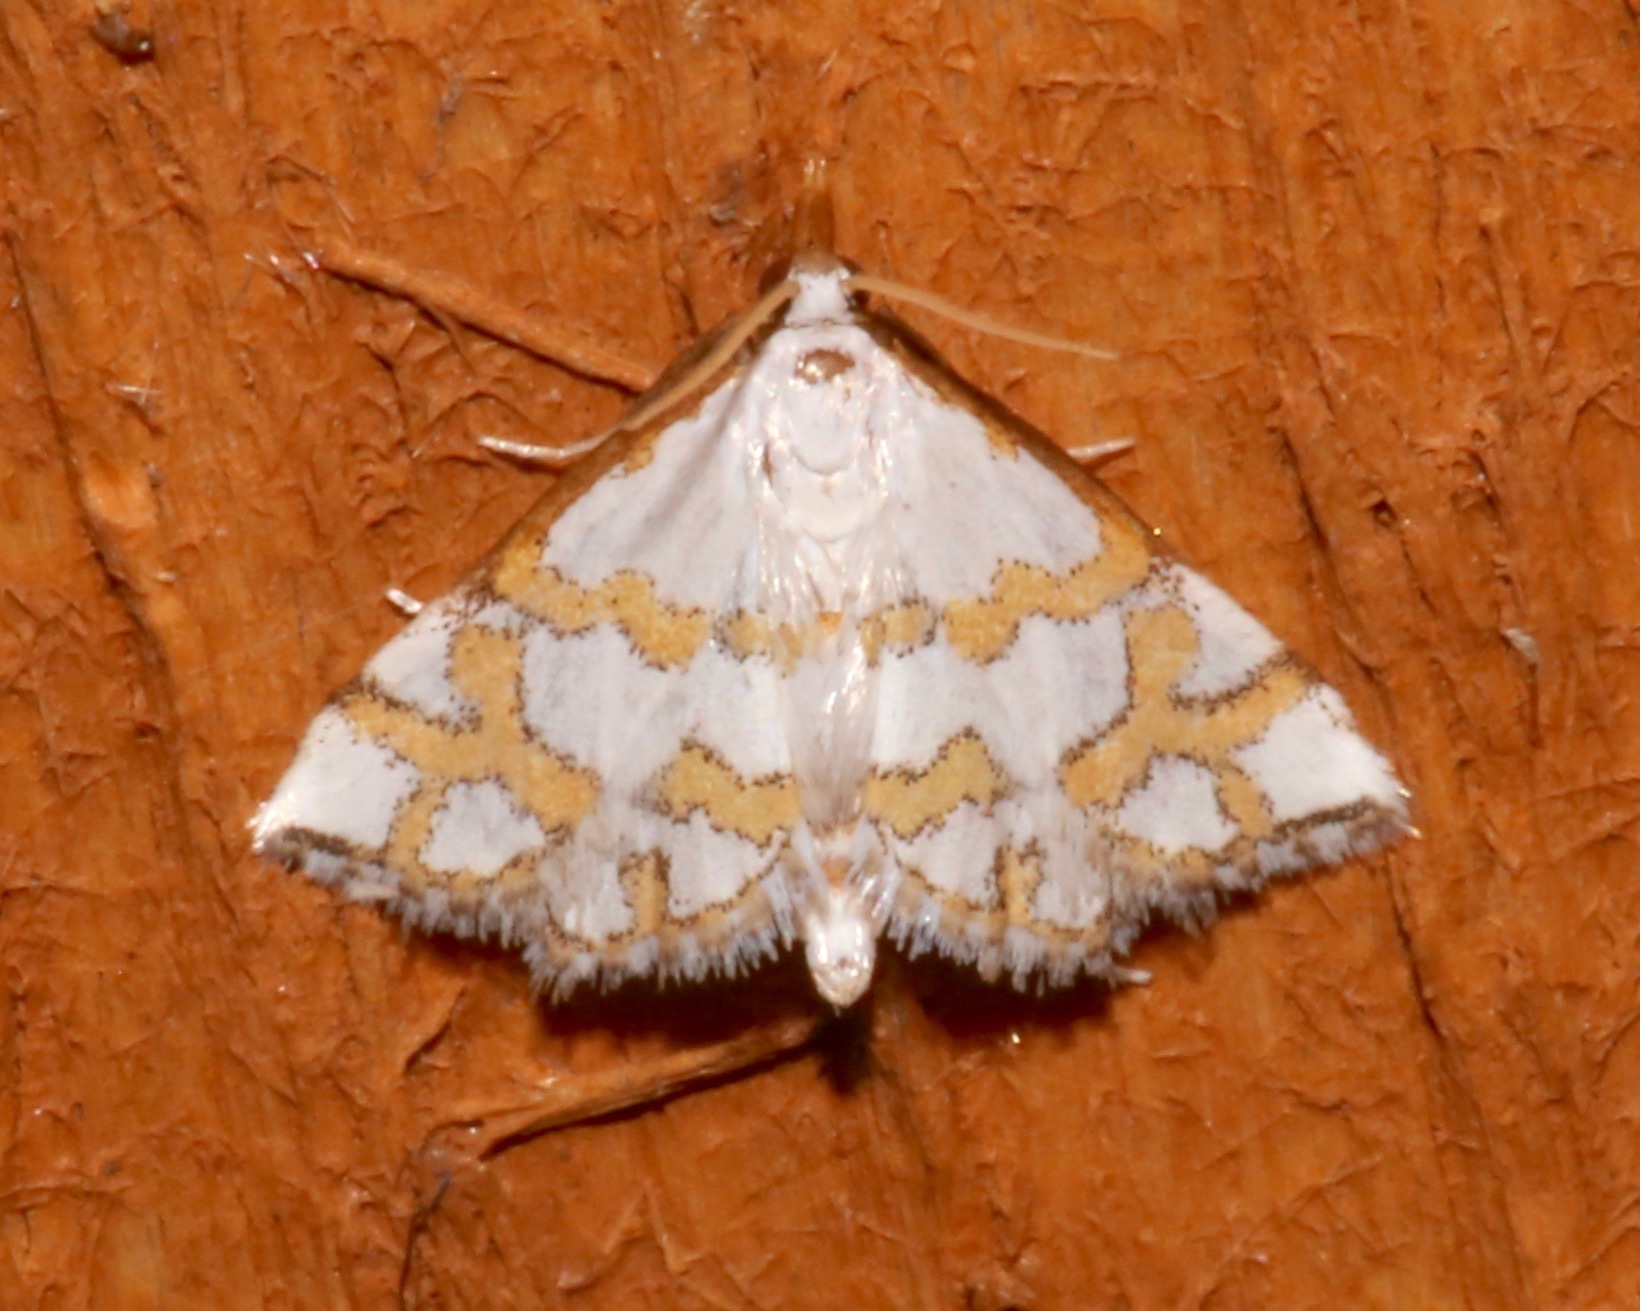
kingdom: Animalia
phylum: Arthropoda
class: Insecta
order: Lepidoptera
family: Crambidae
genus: Leptosteges
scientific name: Leptosteges
